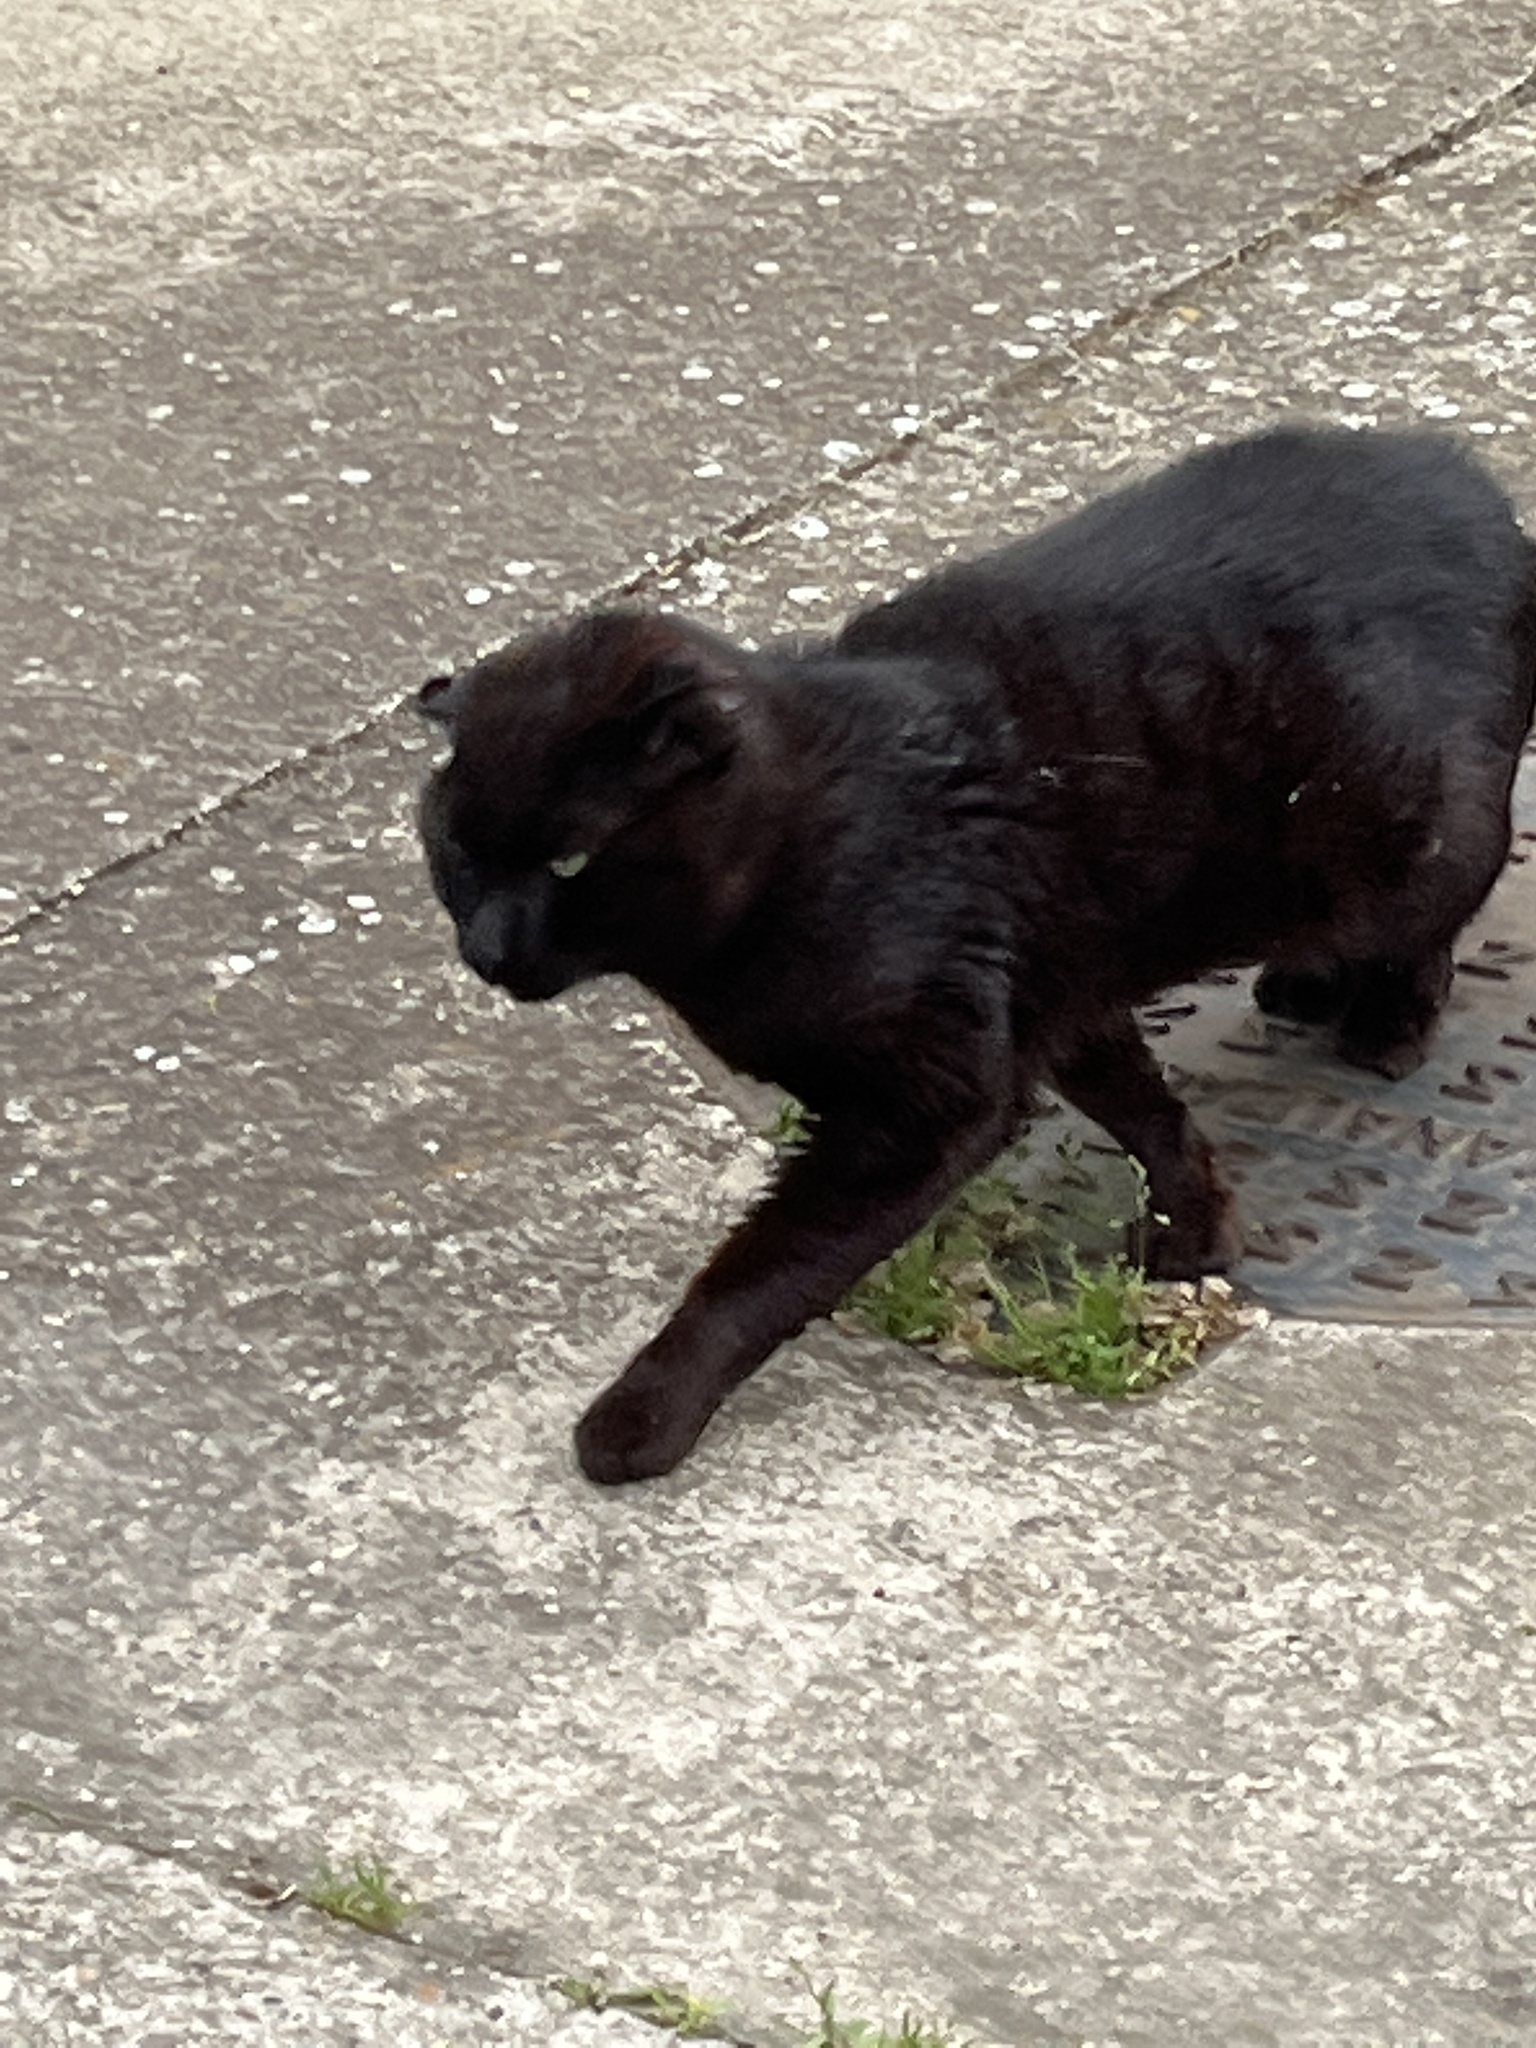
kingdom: Animalia
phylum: Chordata
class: Mammalia
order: Carnivora
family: Felidae
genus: Felis
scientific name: Felis catus
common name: Domestic cat
